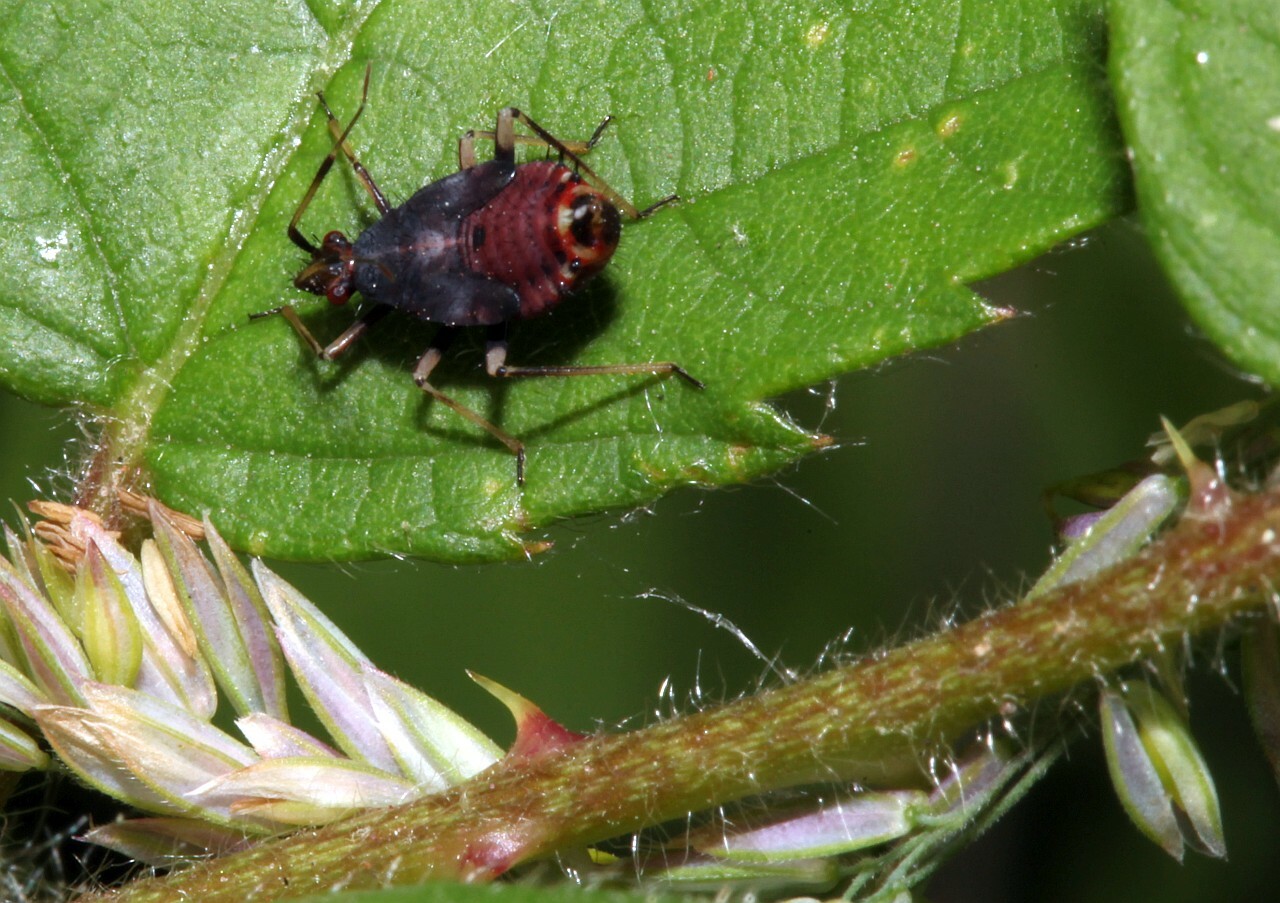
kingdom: Animalia
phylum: Arthropoda
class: Insecta
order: Hemiptera
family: Miridae
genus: Deraeocoris
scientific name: Deraeocoris ruber
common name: Plant bug
